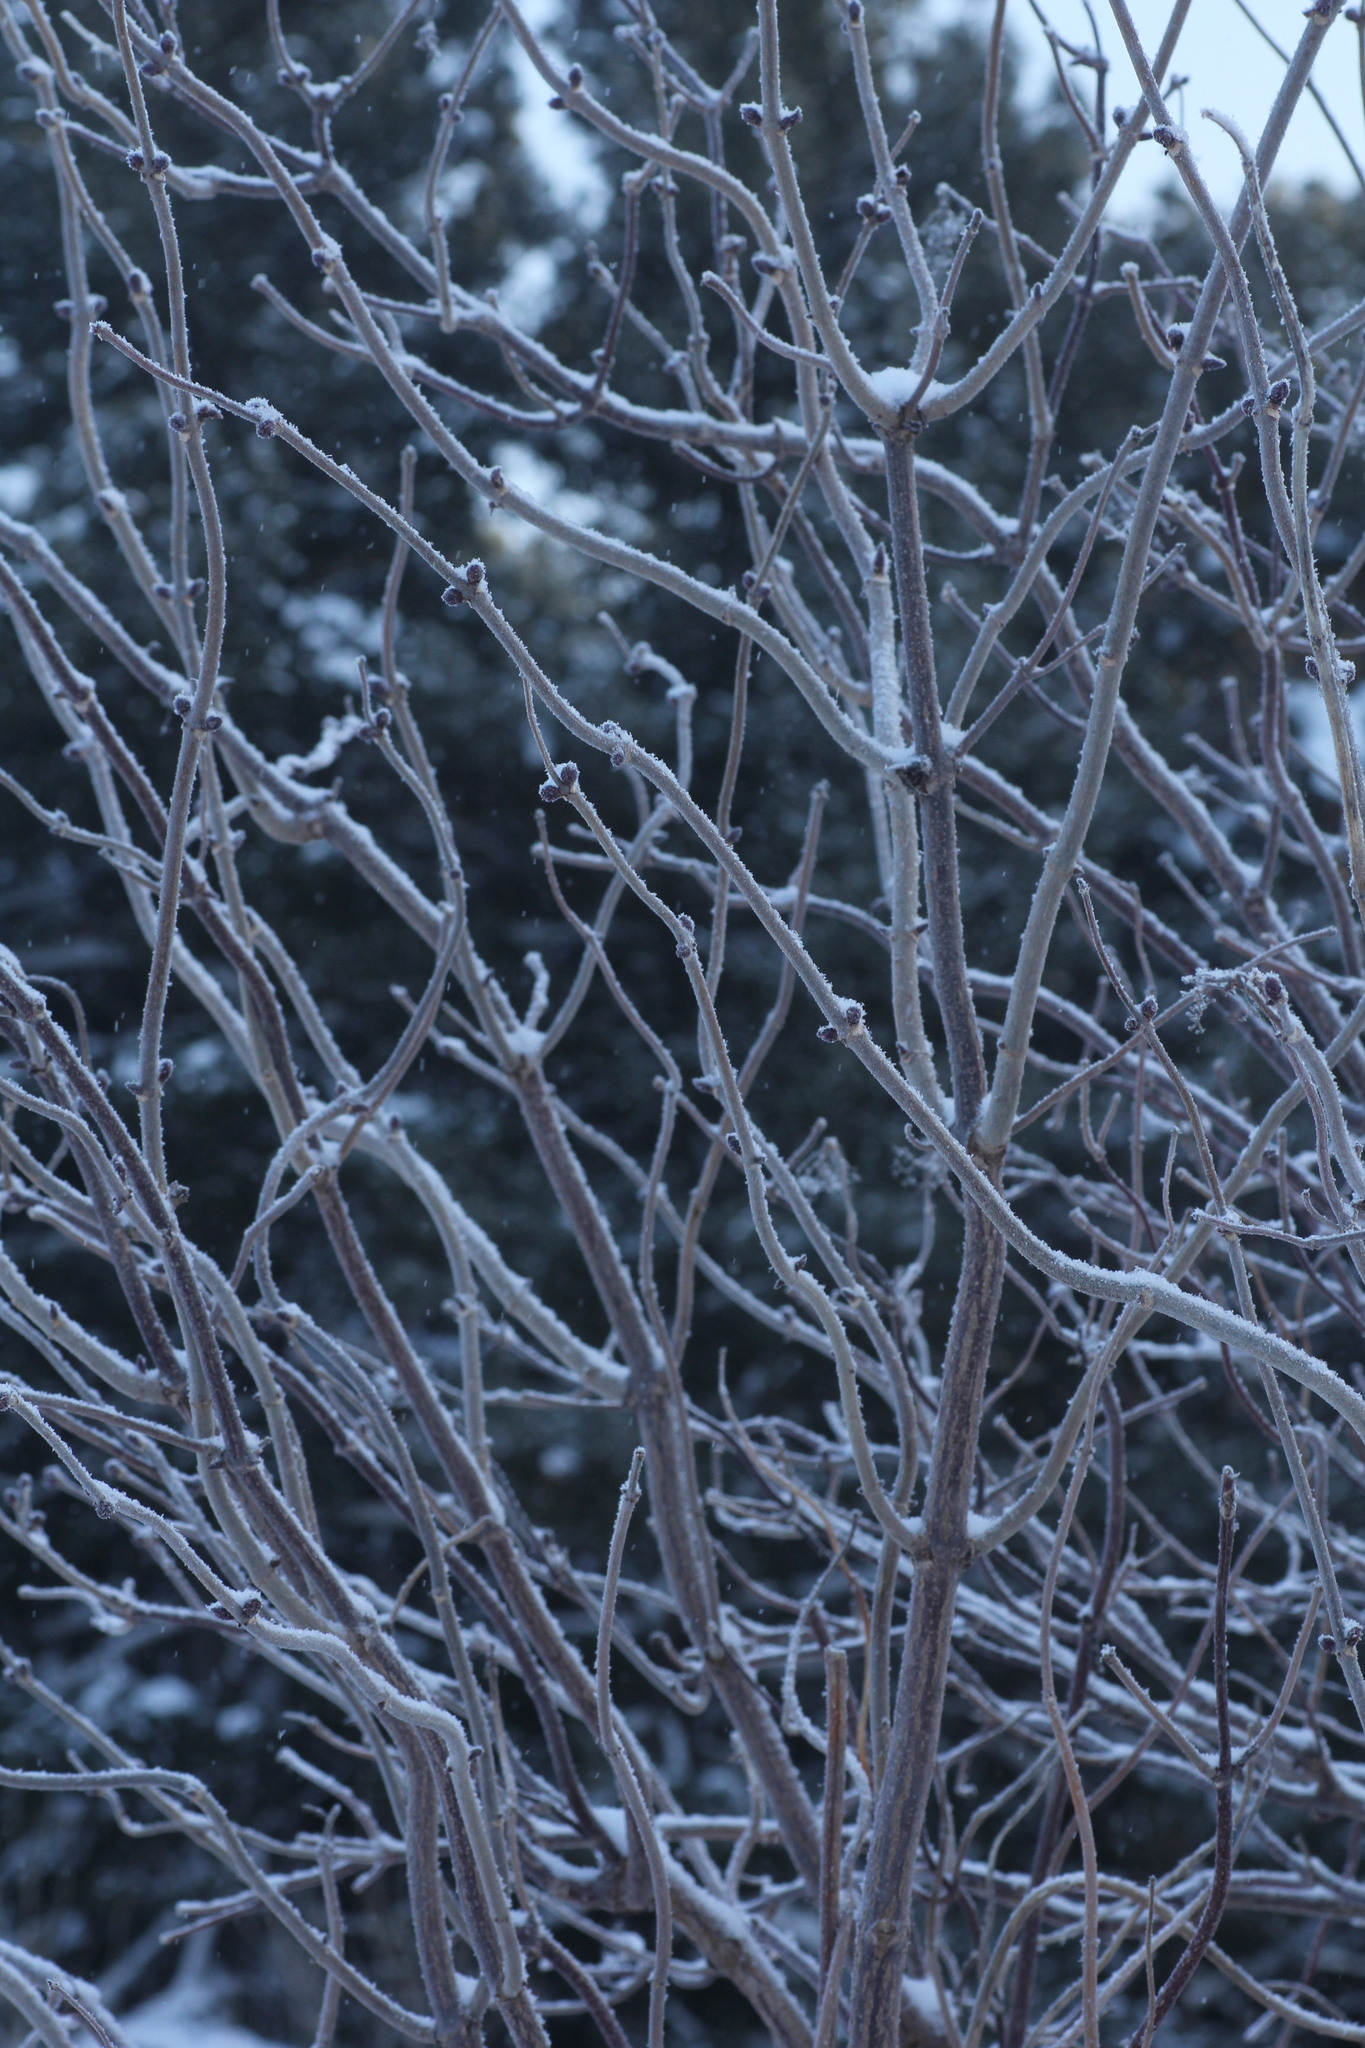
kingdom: Plantae
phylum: Tracheophyta
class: Magnoliopsida
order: Dipsacales
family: Viburnaceae
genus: Sambucus
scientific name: Sambucus sibirica
